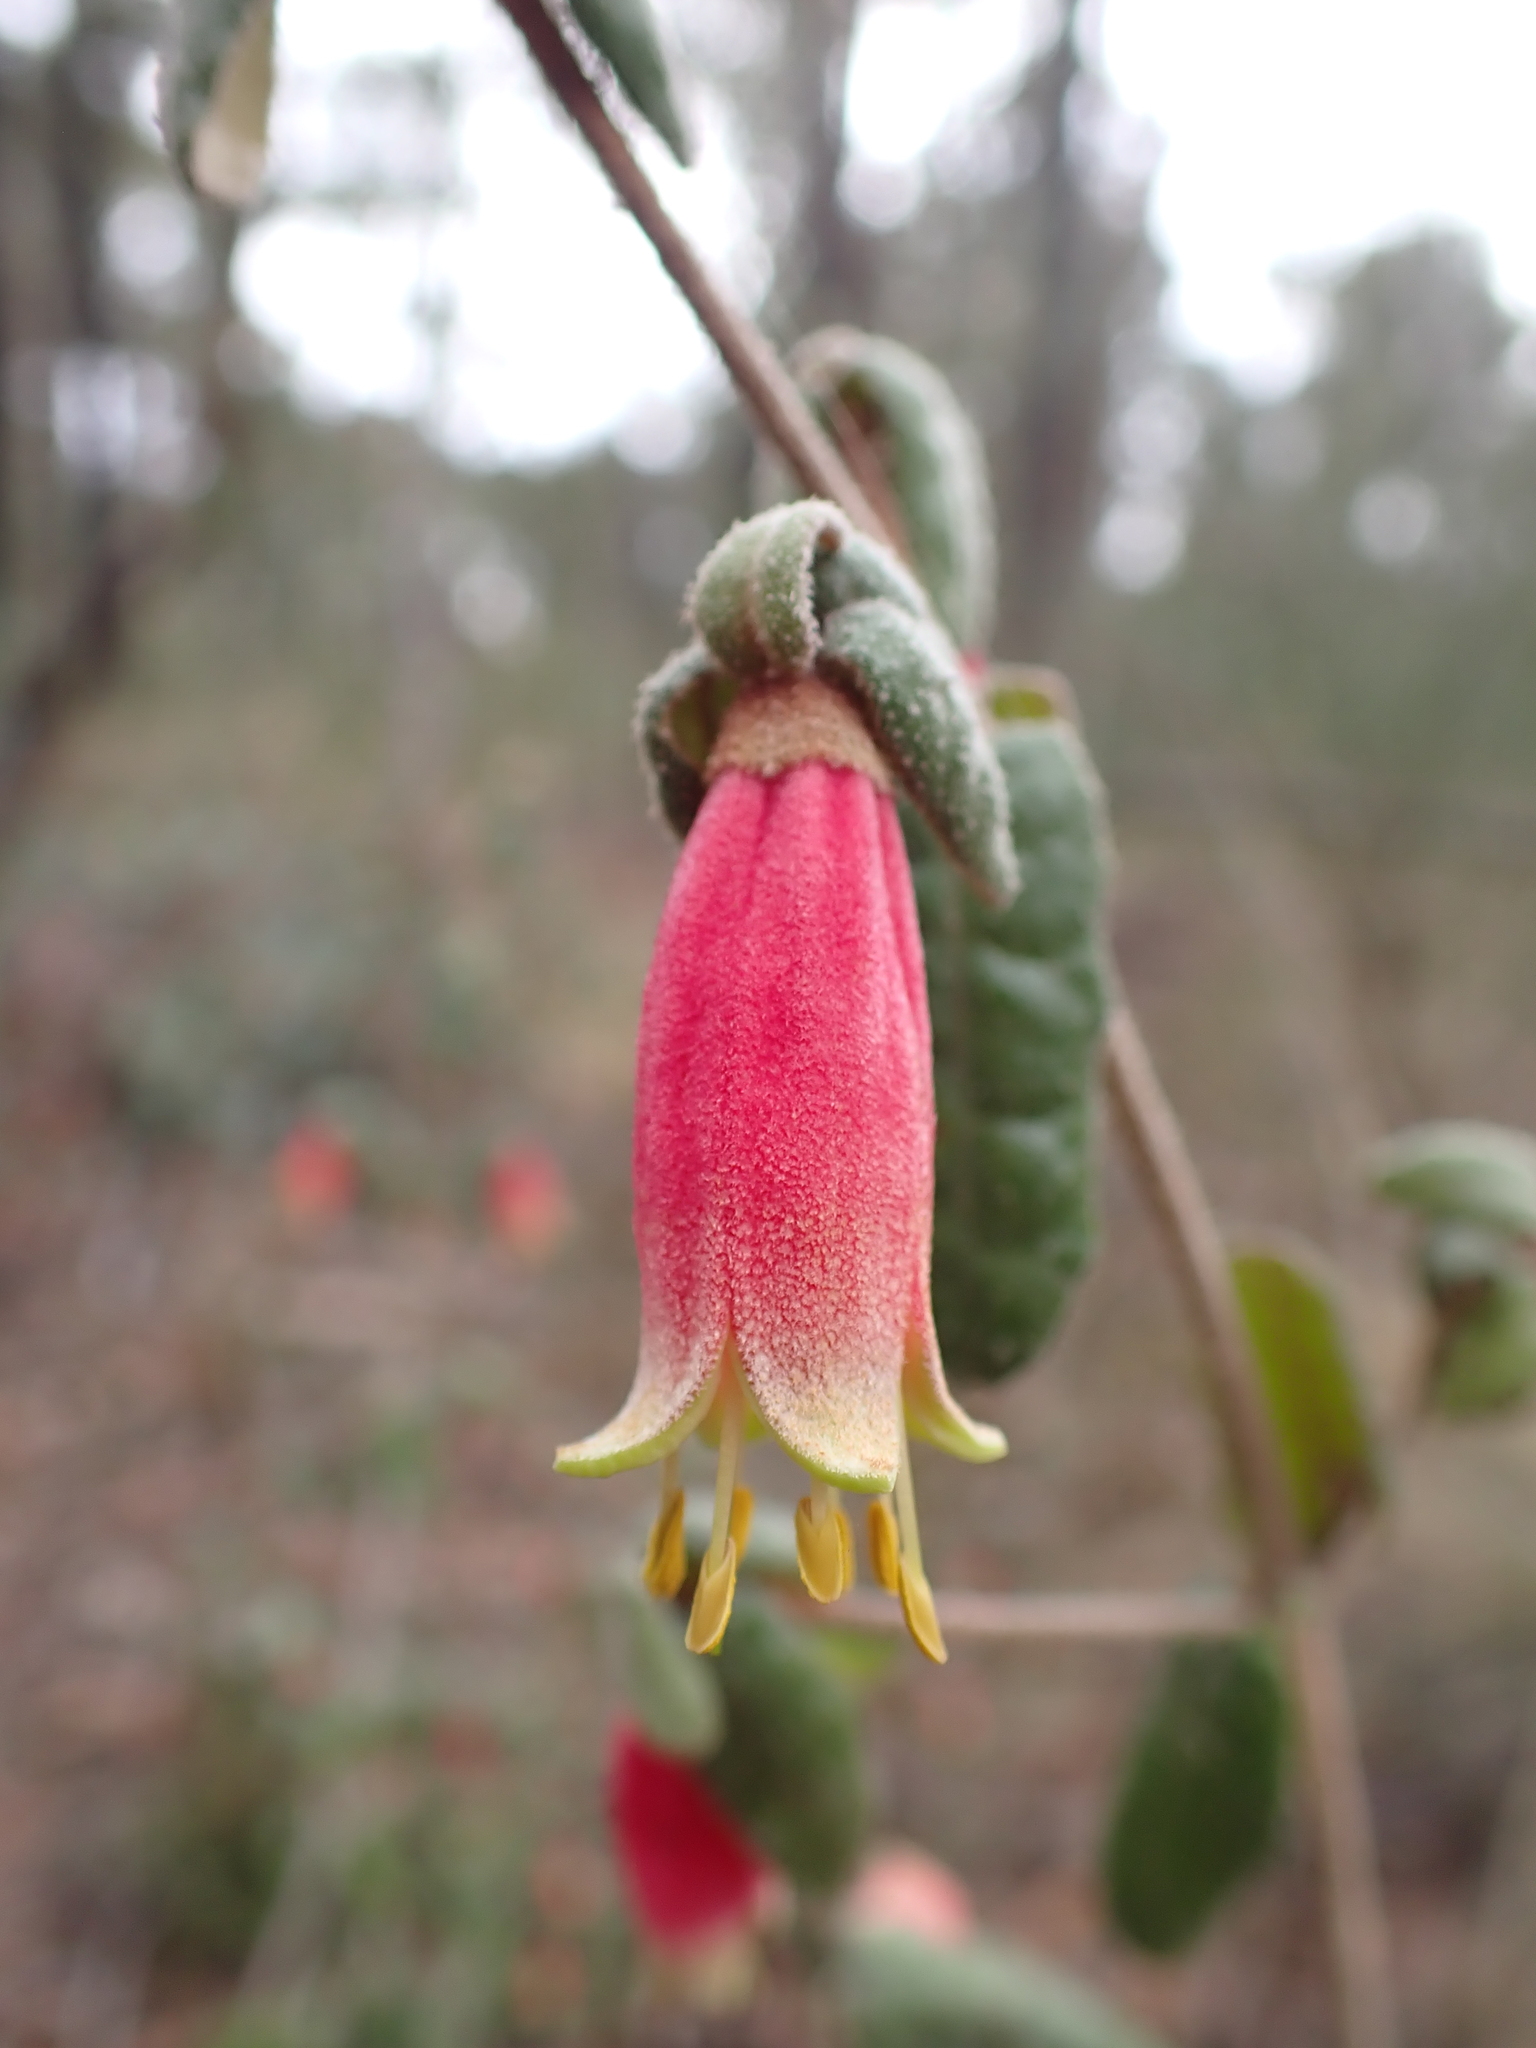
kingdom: Plantae
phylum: Tracheophyta
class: Magnoliopsida
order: Sapindales
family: Rutaceae
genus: Correa
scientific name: Correa reflexa
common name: Common correa
